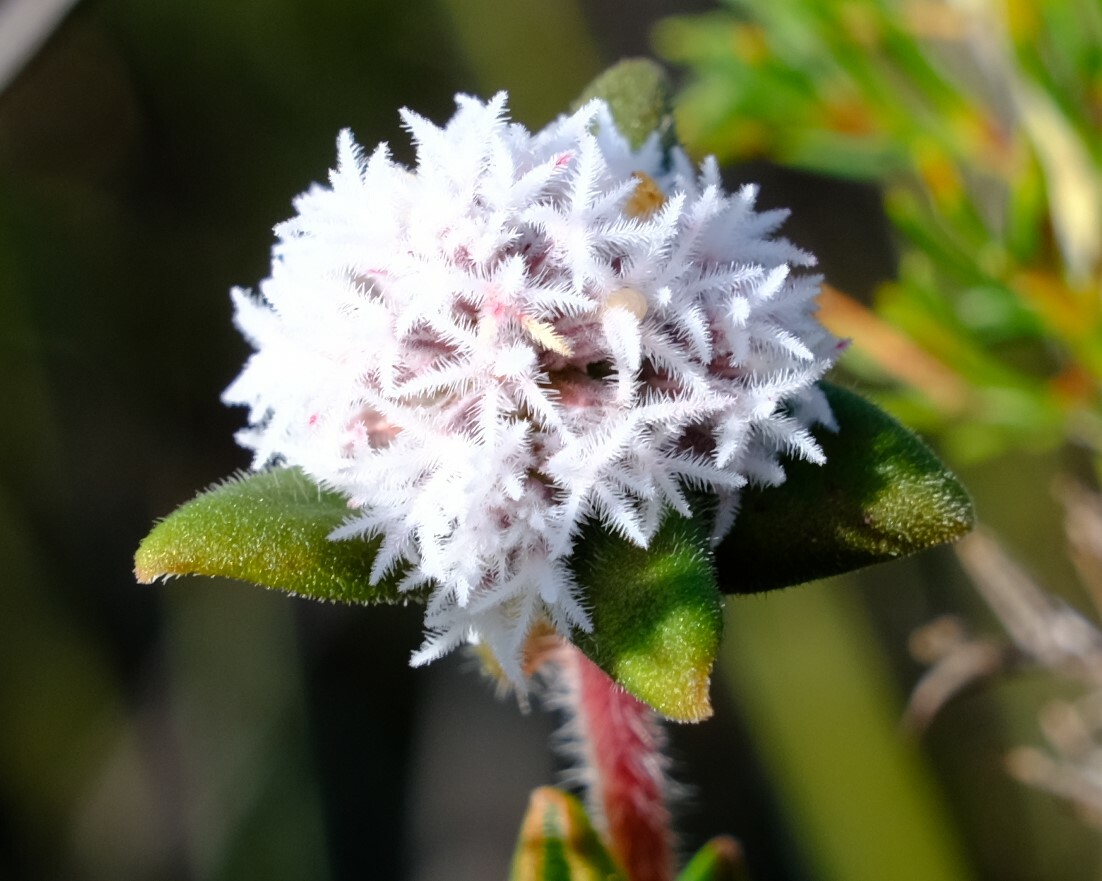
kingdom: Plantae
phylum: Tracheophyta
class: Magnoliopsida
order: Ericales
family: Ericaceae
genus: Leucopogon
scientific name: Leucopogon plumuliflorus
